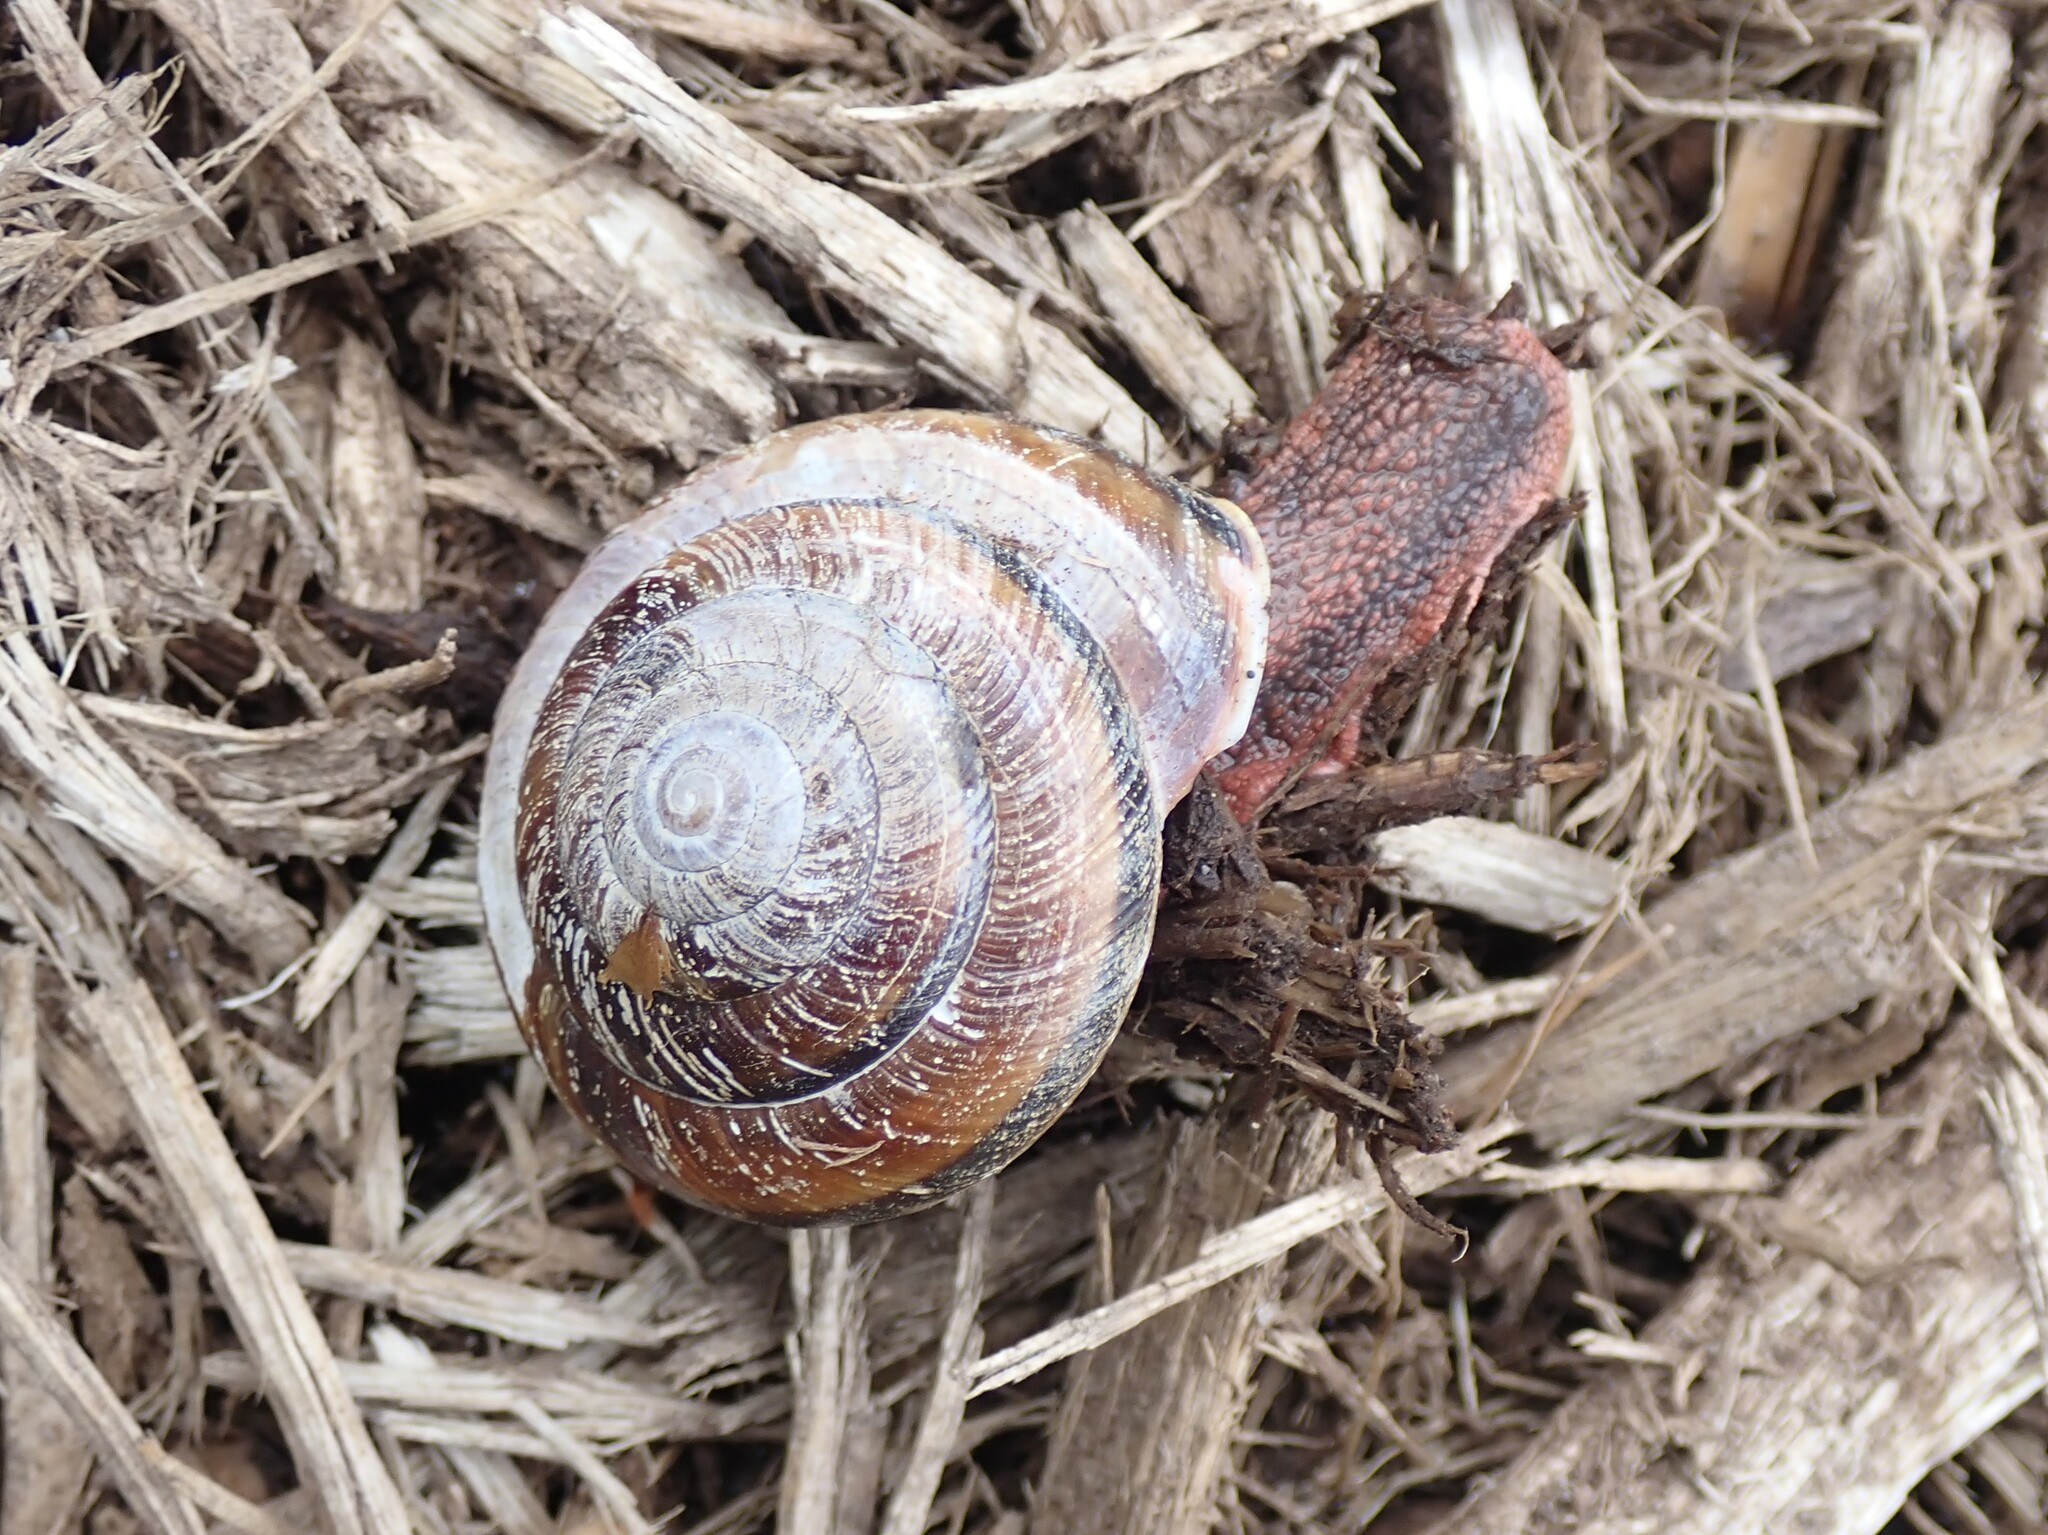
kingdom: Animalia
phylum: Mollusca
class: Gastropoda
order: Stylommatophora
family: Xanthonychidae
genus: Monadenia
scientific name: Monadenia fidelis
